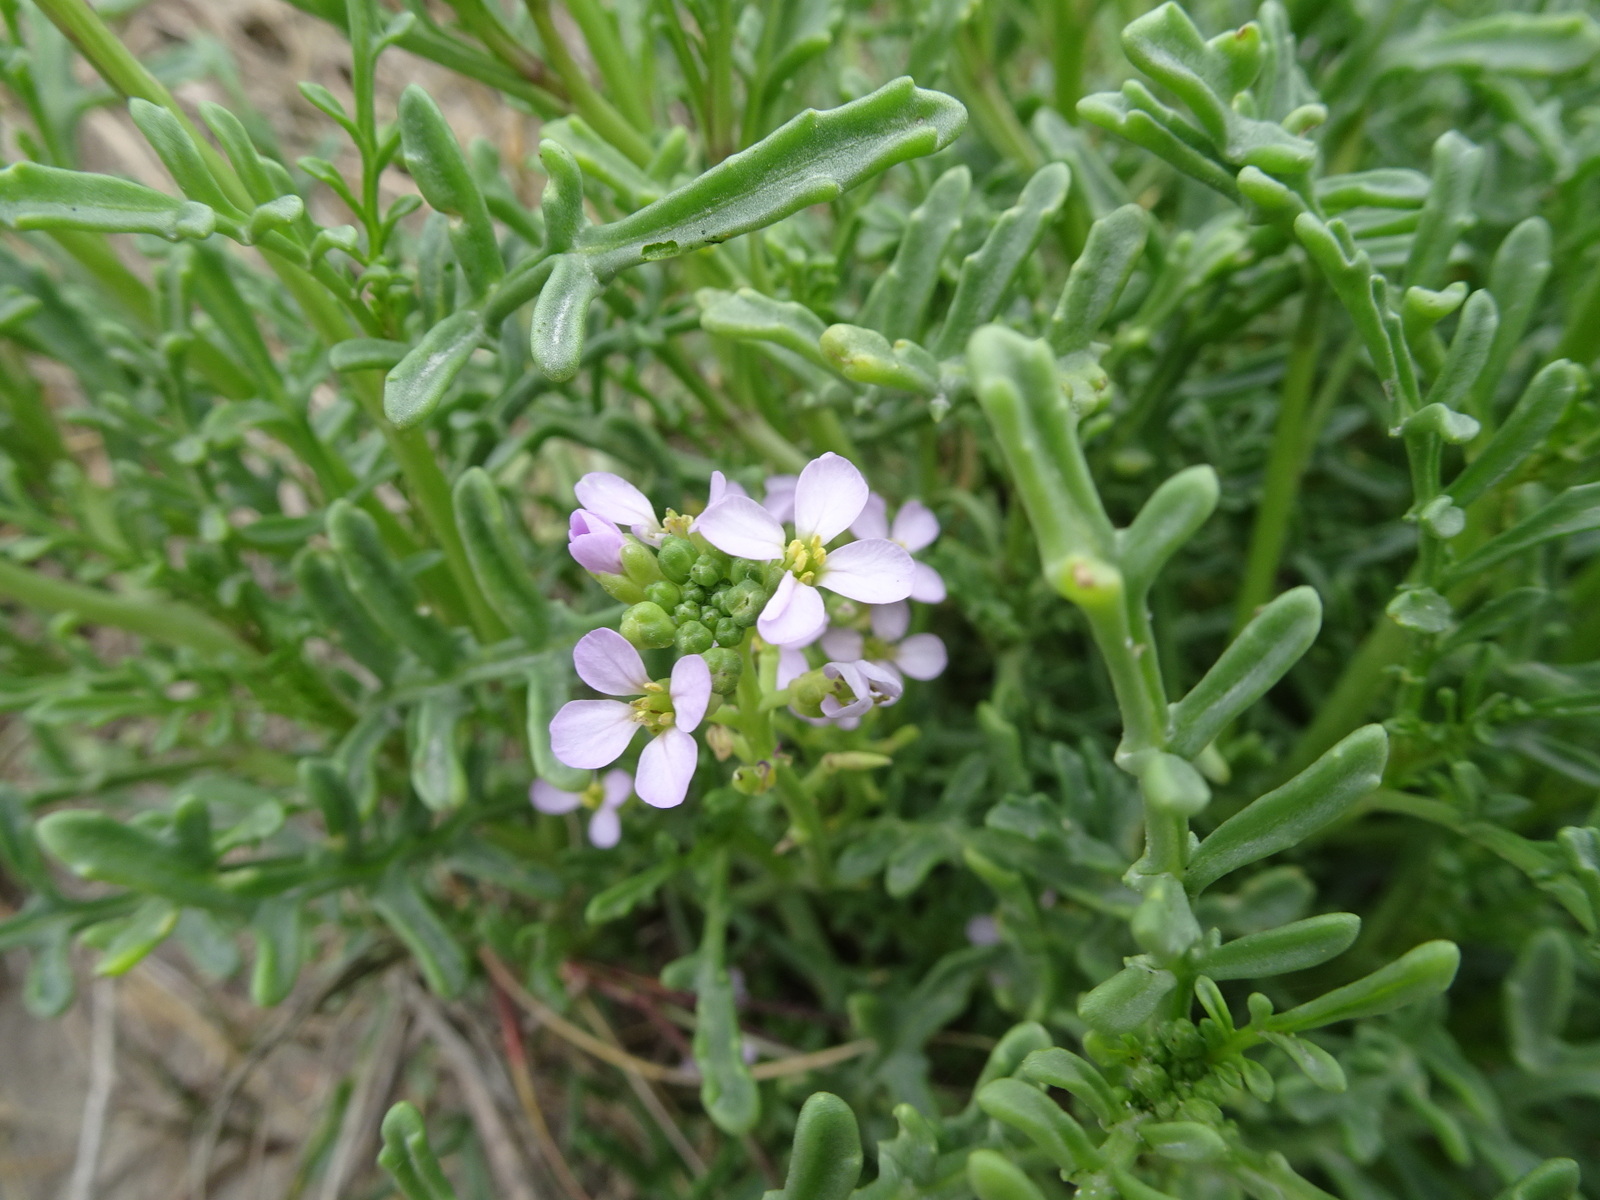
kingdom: Plantae
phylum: Tracheophyta
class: Magnoliopsida
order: Brassicales
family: Brassicaceae
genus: Cakile
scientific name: Cakile maritima
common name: Sea rocket
